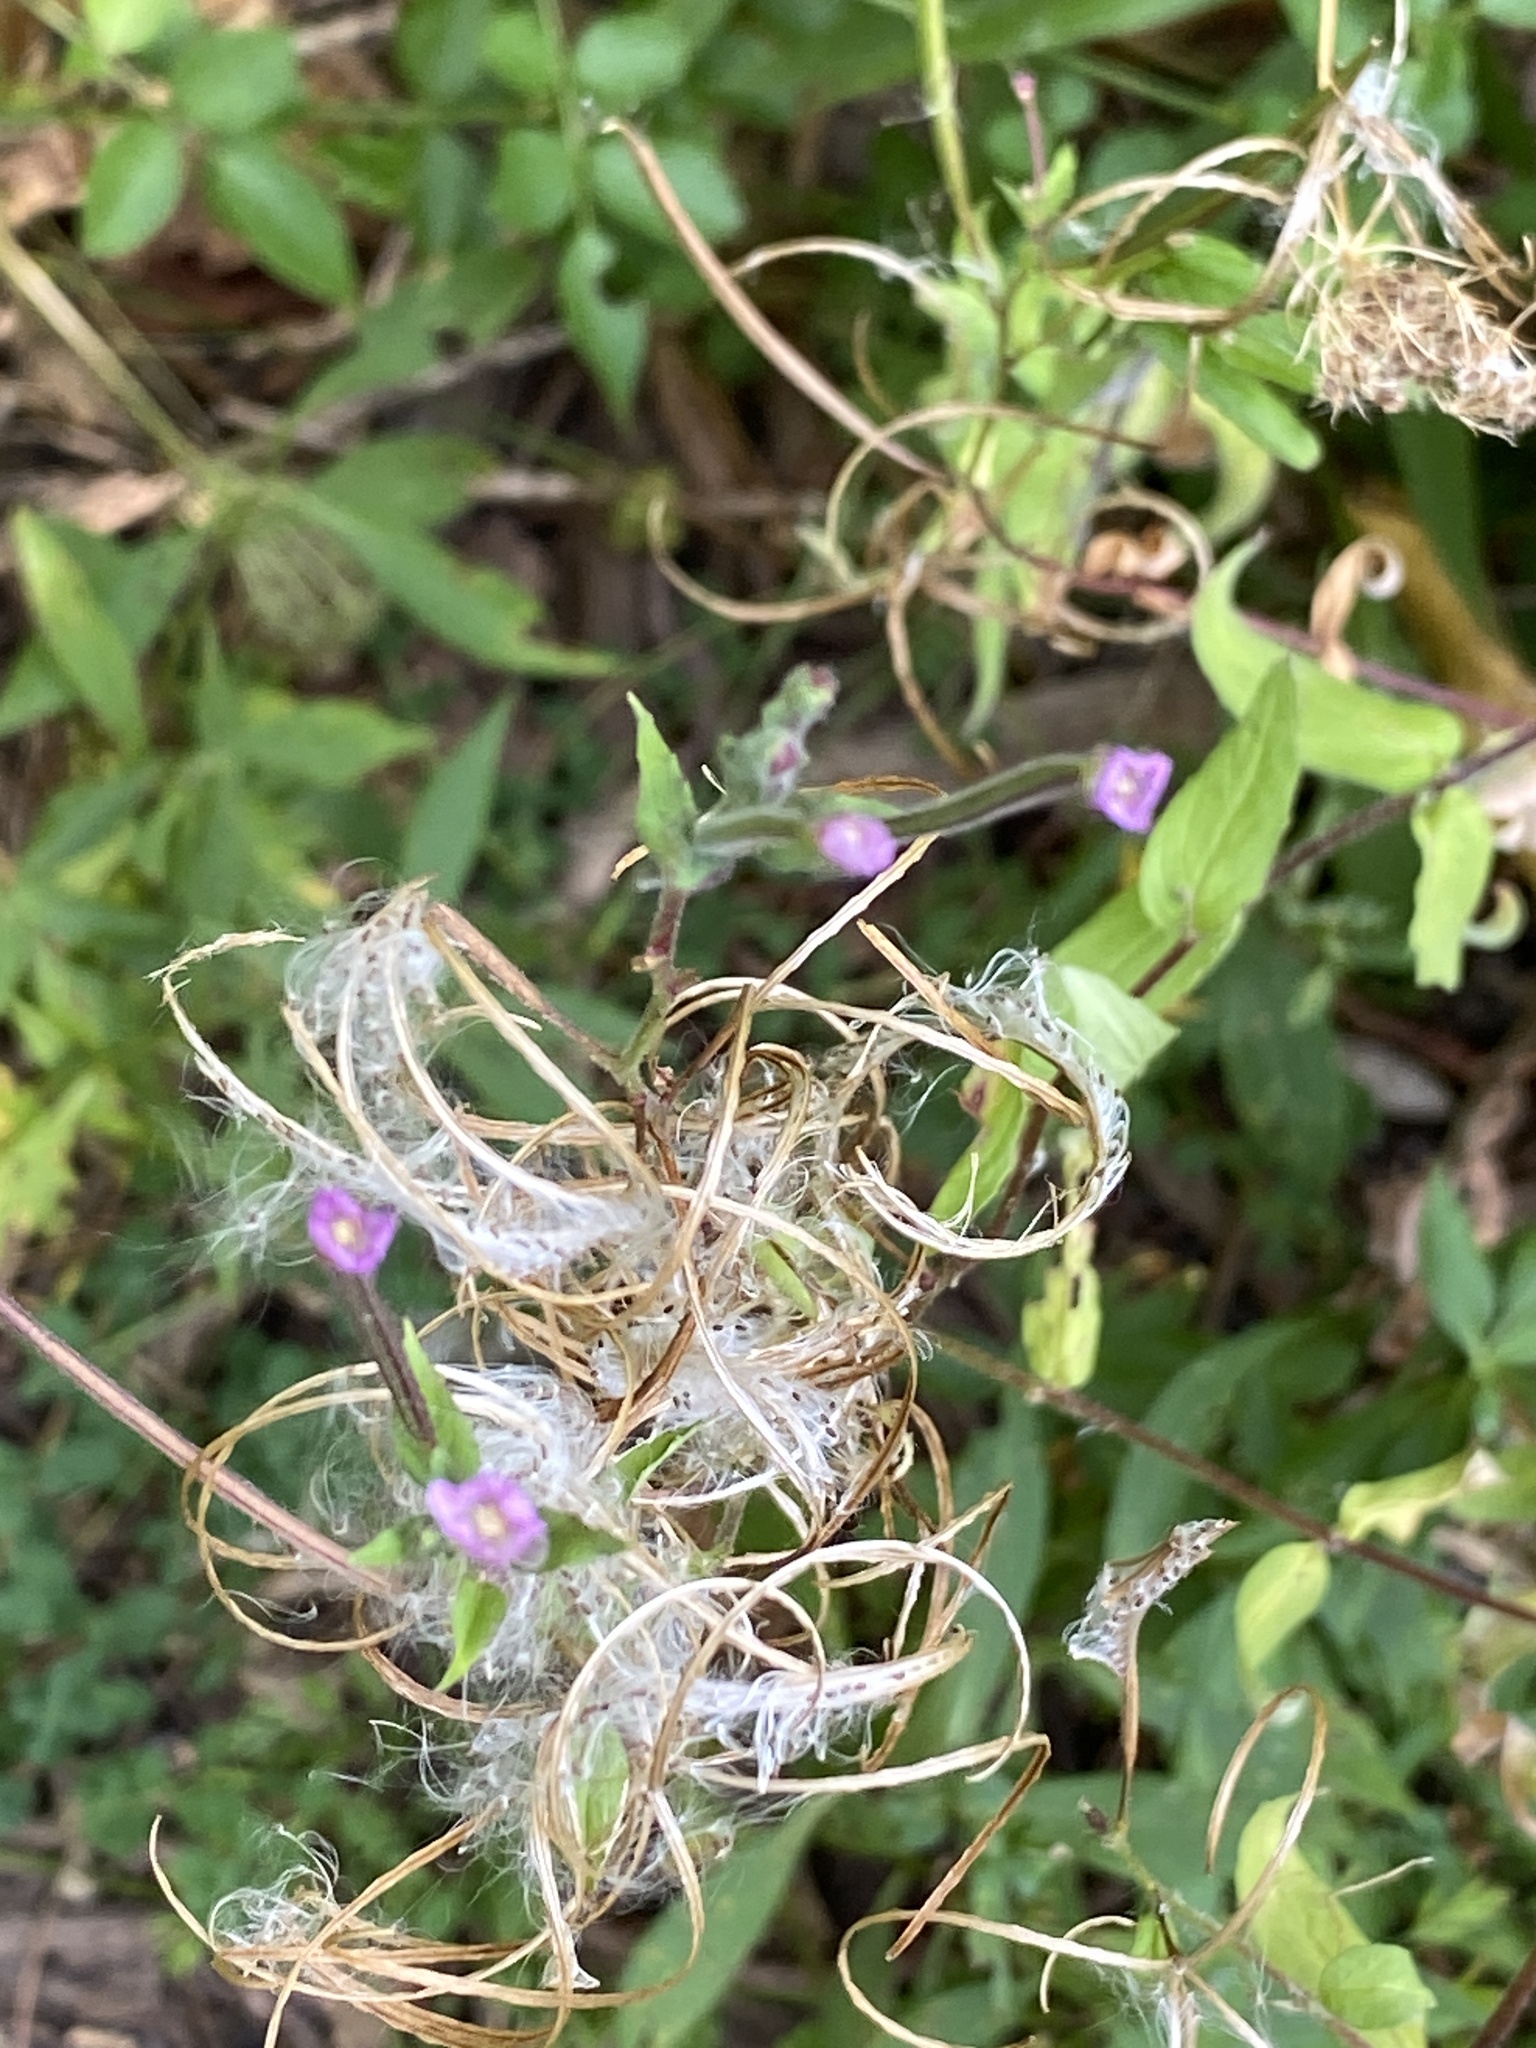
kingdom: Plantae
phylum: Tracheophyta
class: Magnoliopsida
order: Myrtales
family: Onagraceae
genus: Epilobium
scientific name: Epilobium ciliatum
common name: American willowherb
